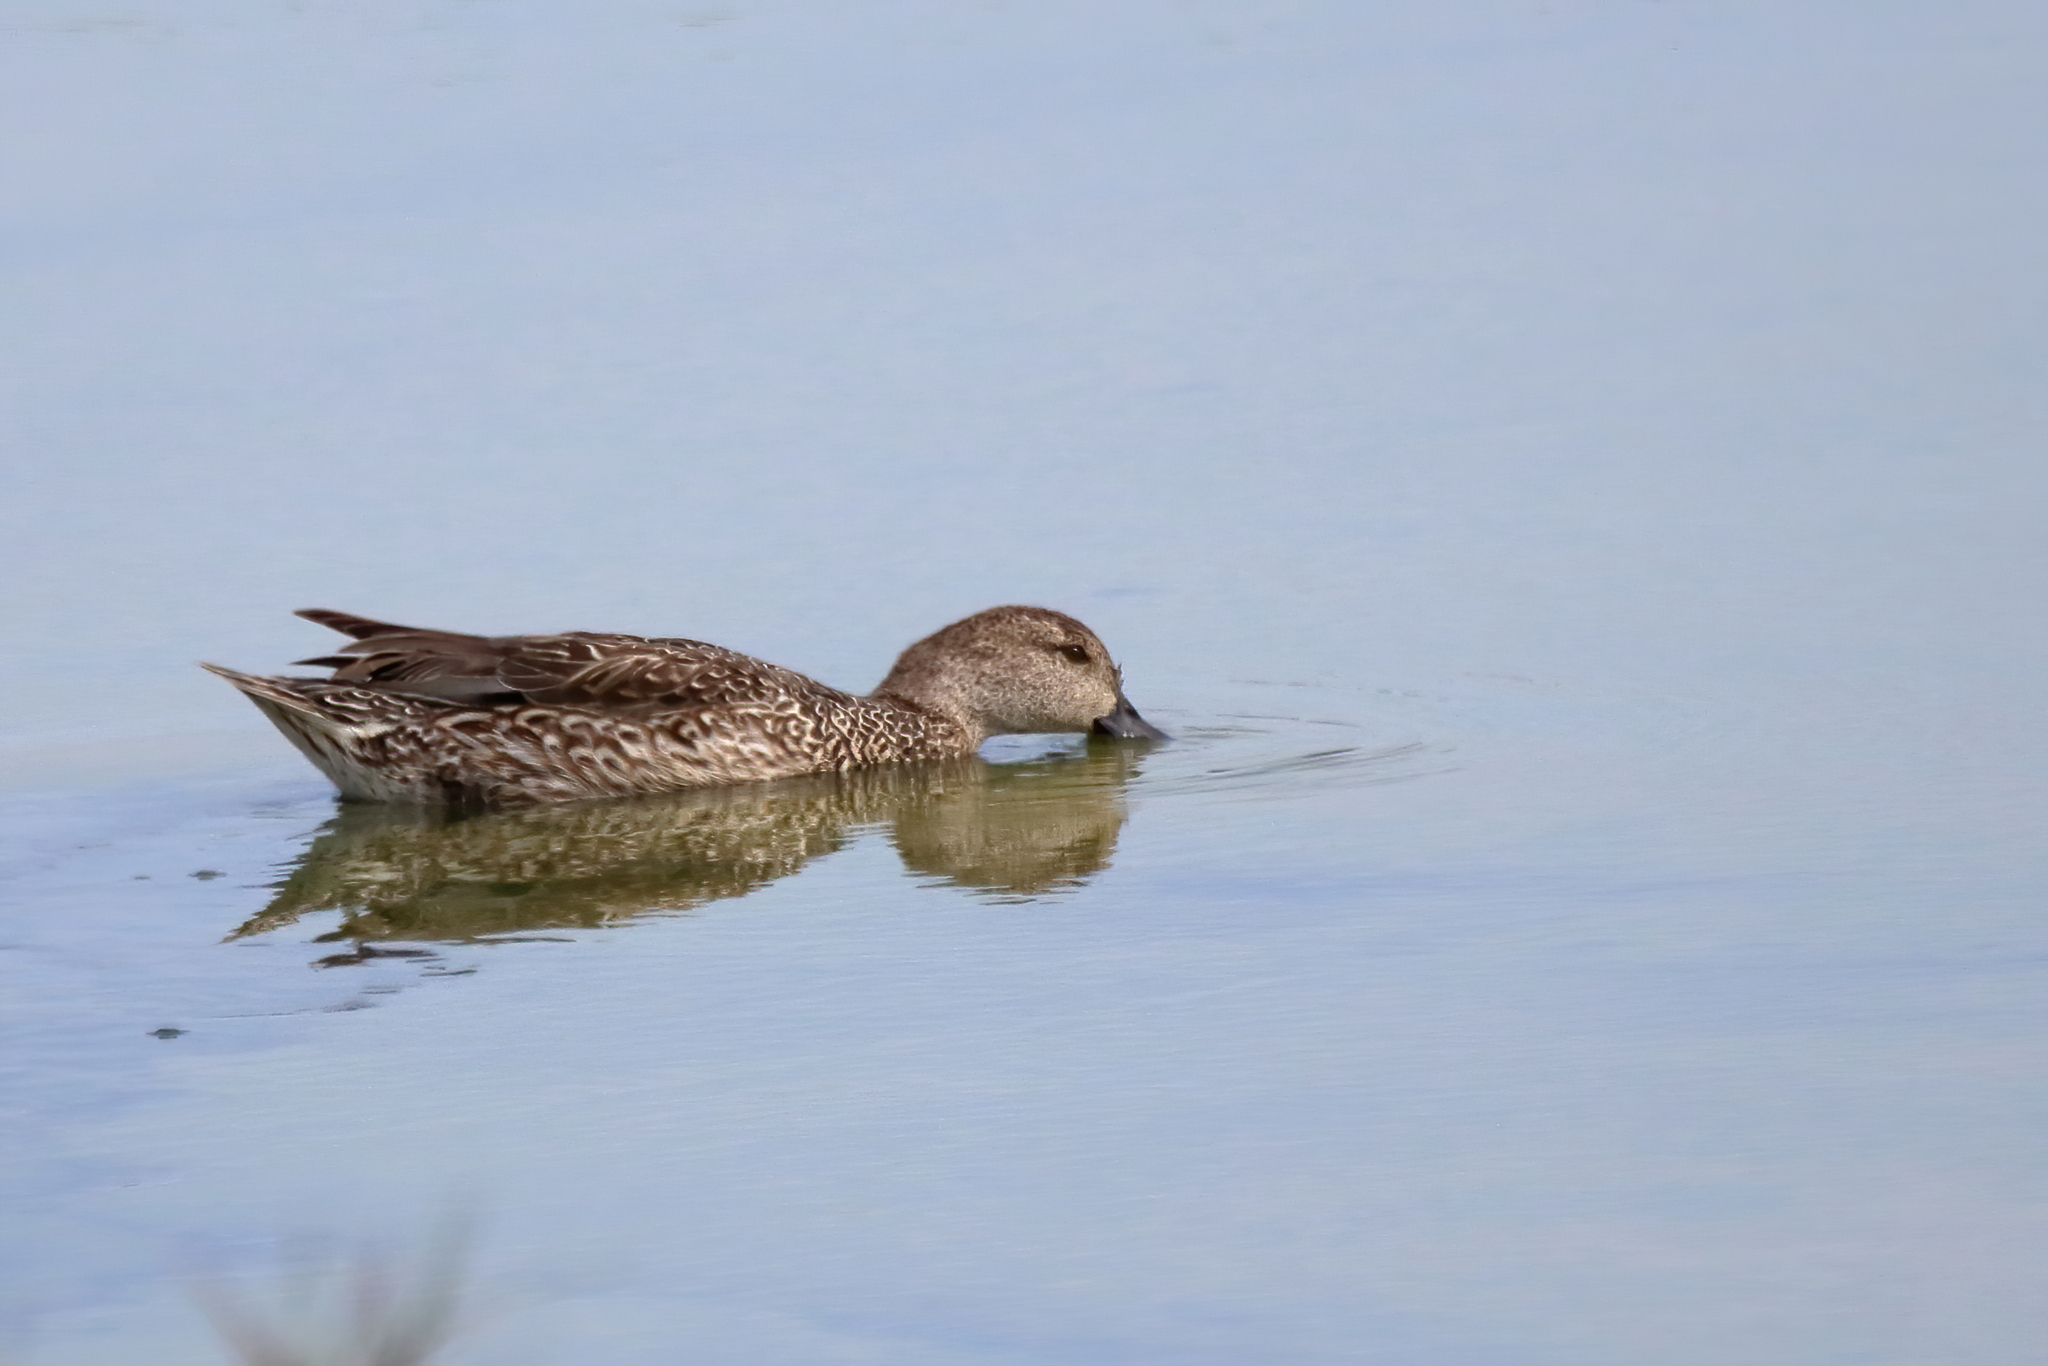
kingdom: Animalia
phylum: Chordata
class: Aves
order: Anseriformes
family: Anatidae
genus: Anas
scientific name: Anas crecca
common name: Eurasian teal
